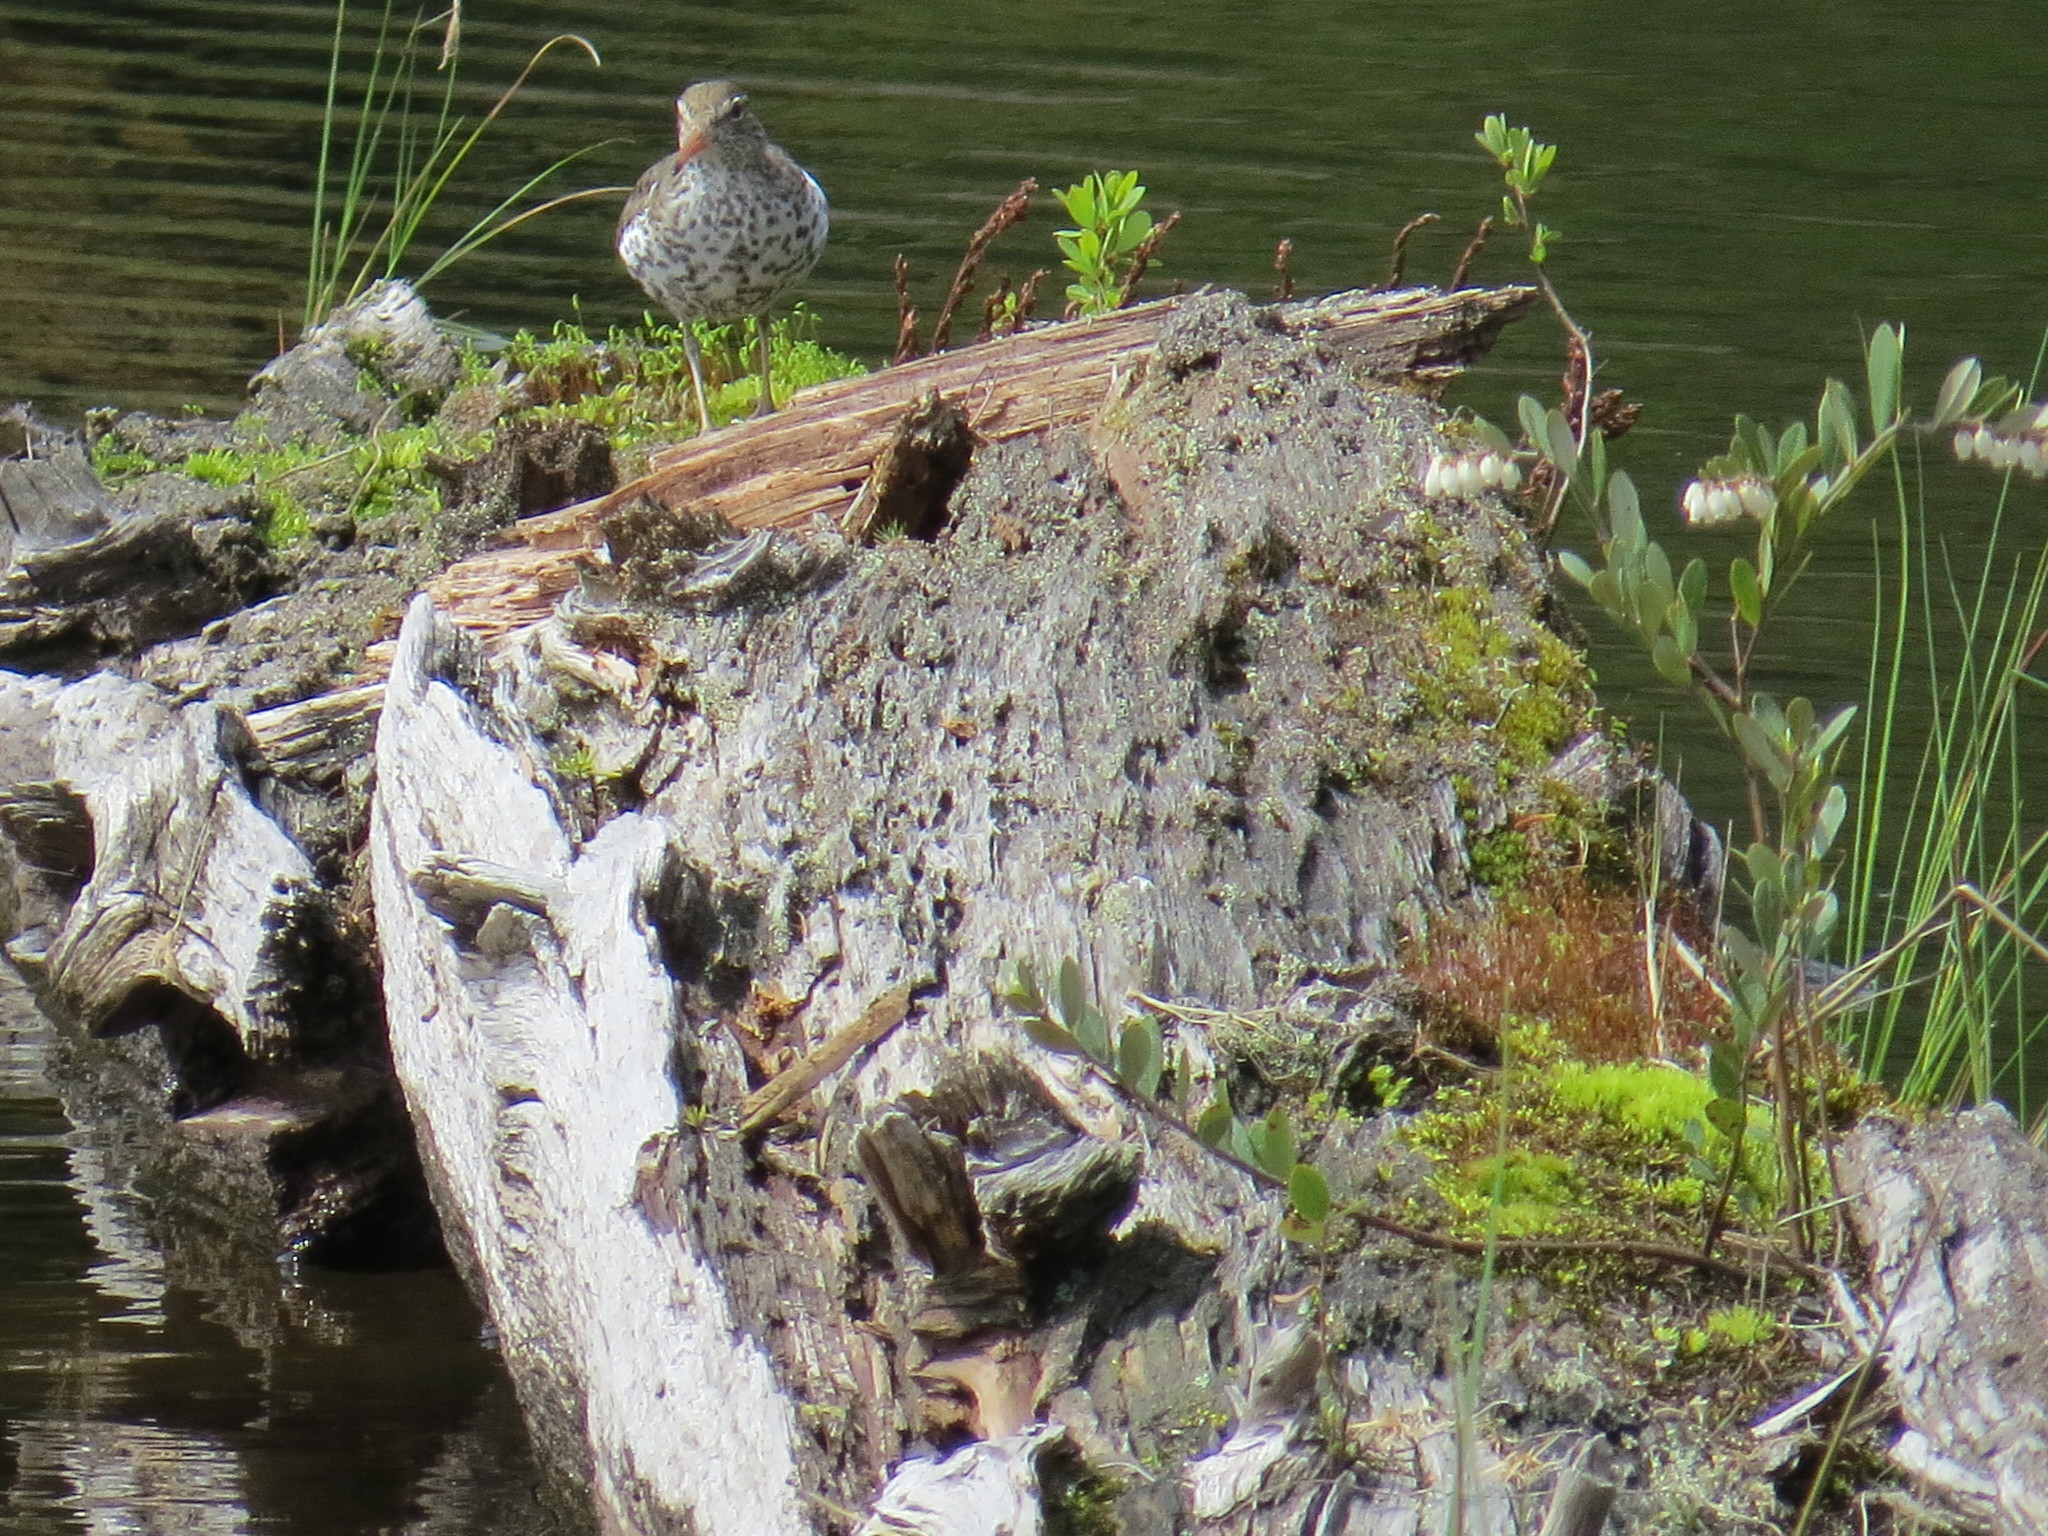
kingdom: Animalia
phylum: Chordata
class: Aves
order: Charadriiformes
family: Scolopacidae
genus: Actitis
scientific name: Actitis macularius
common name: Spotted sandpiper
